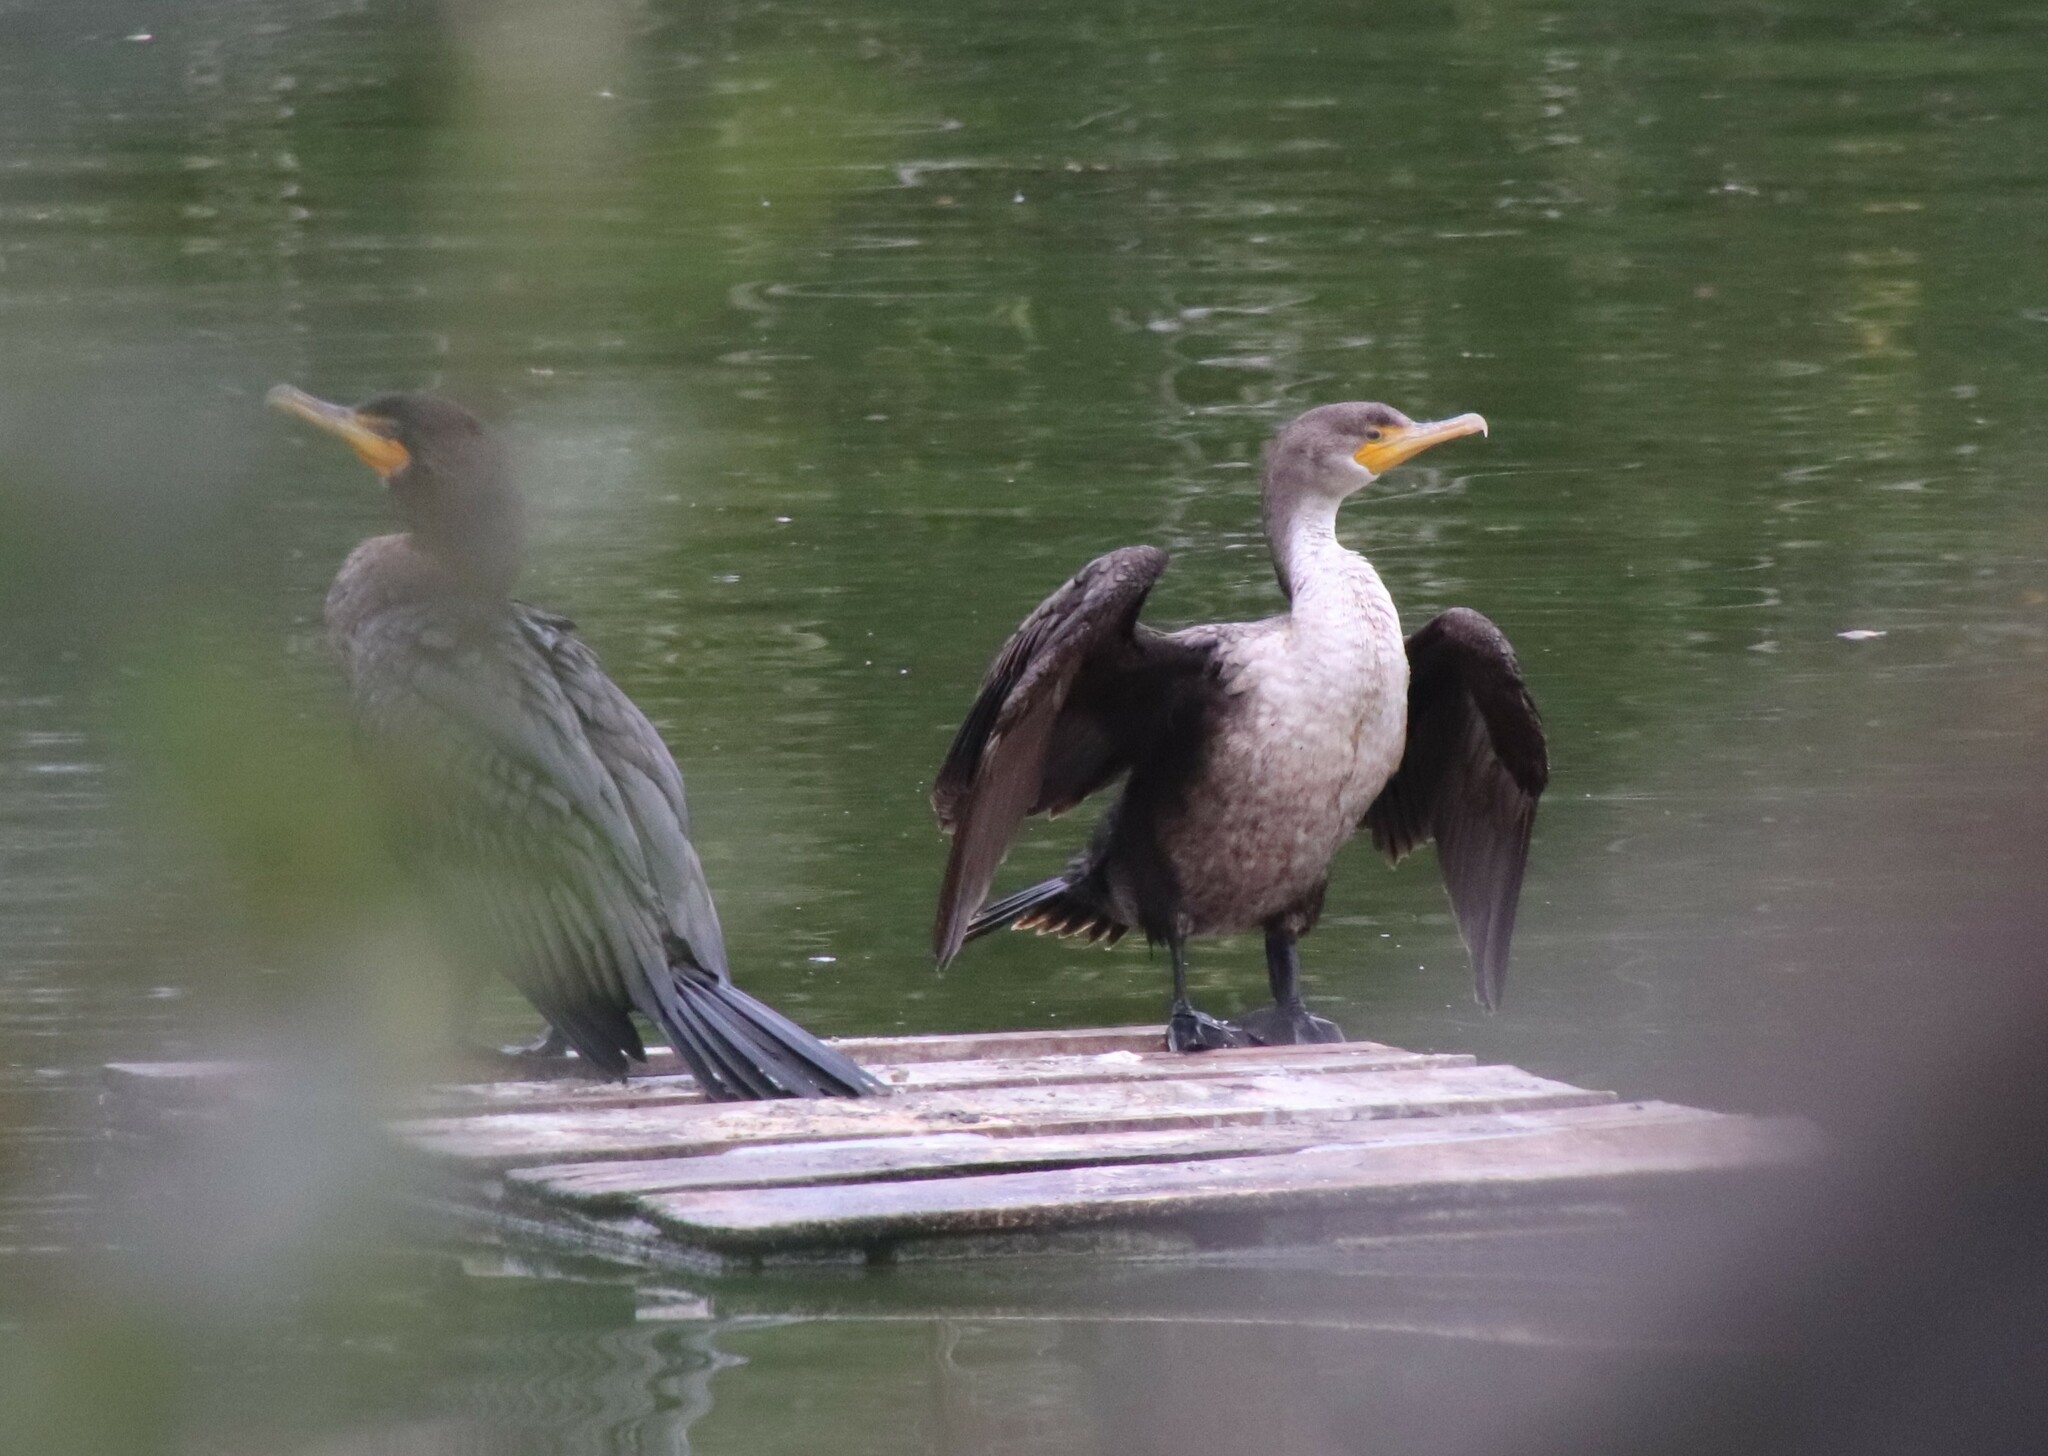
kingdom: Animalia
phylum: Chordata
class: Aves
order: Suliformes
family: Phalacrocoracidae
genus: Phalacrocorax
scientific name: Phalacrocorax auritus
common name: Double-crested cormorant
